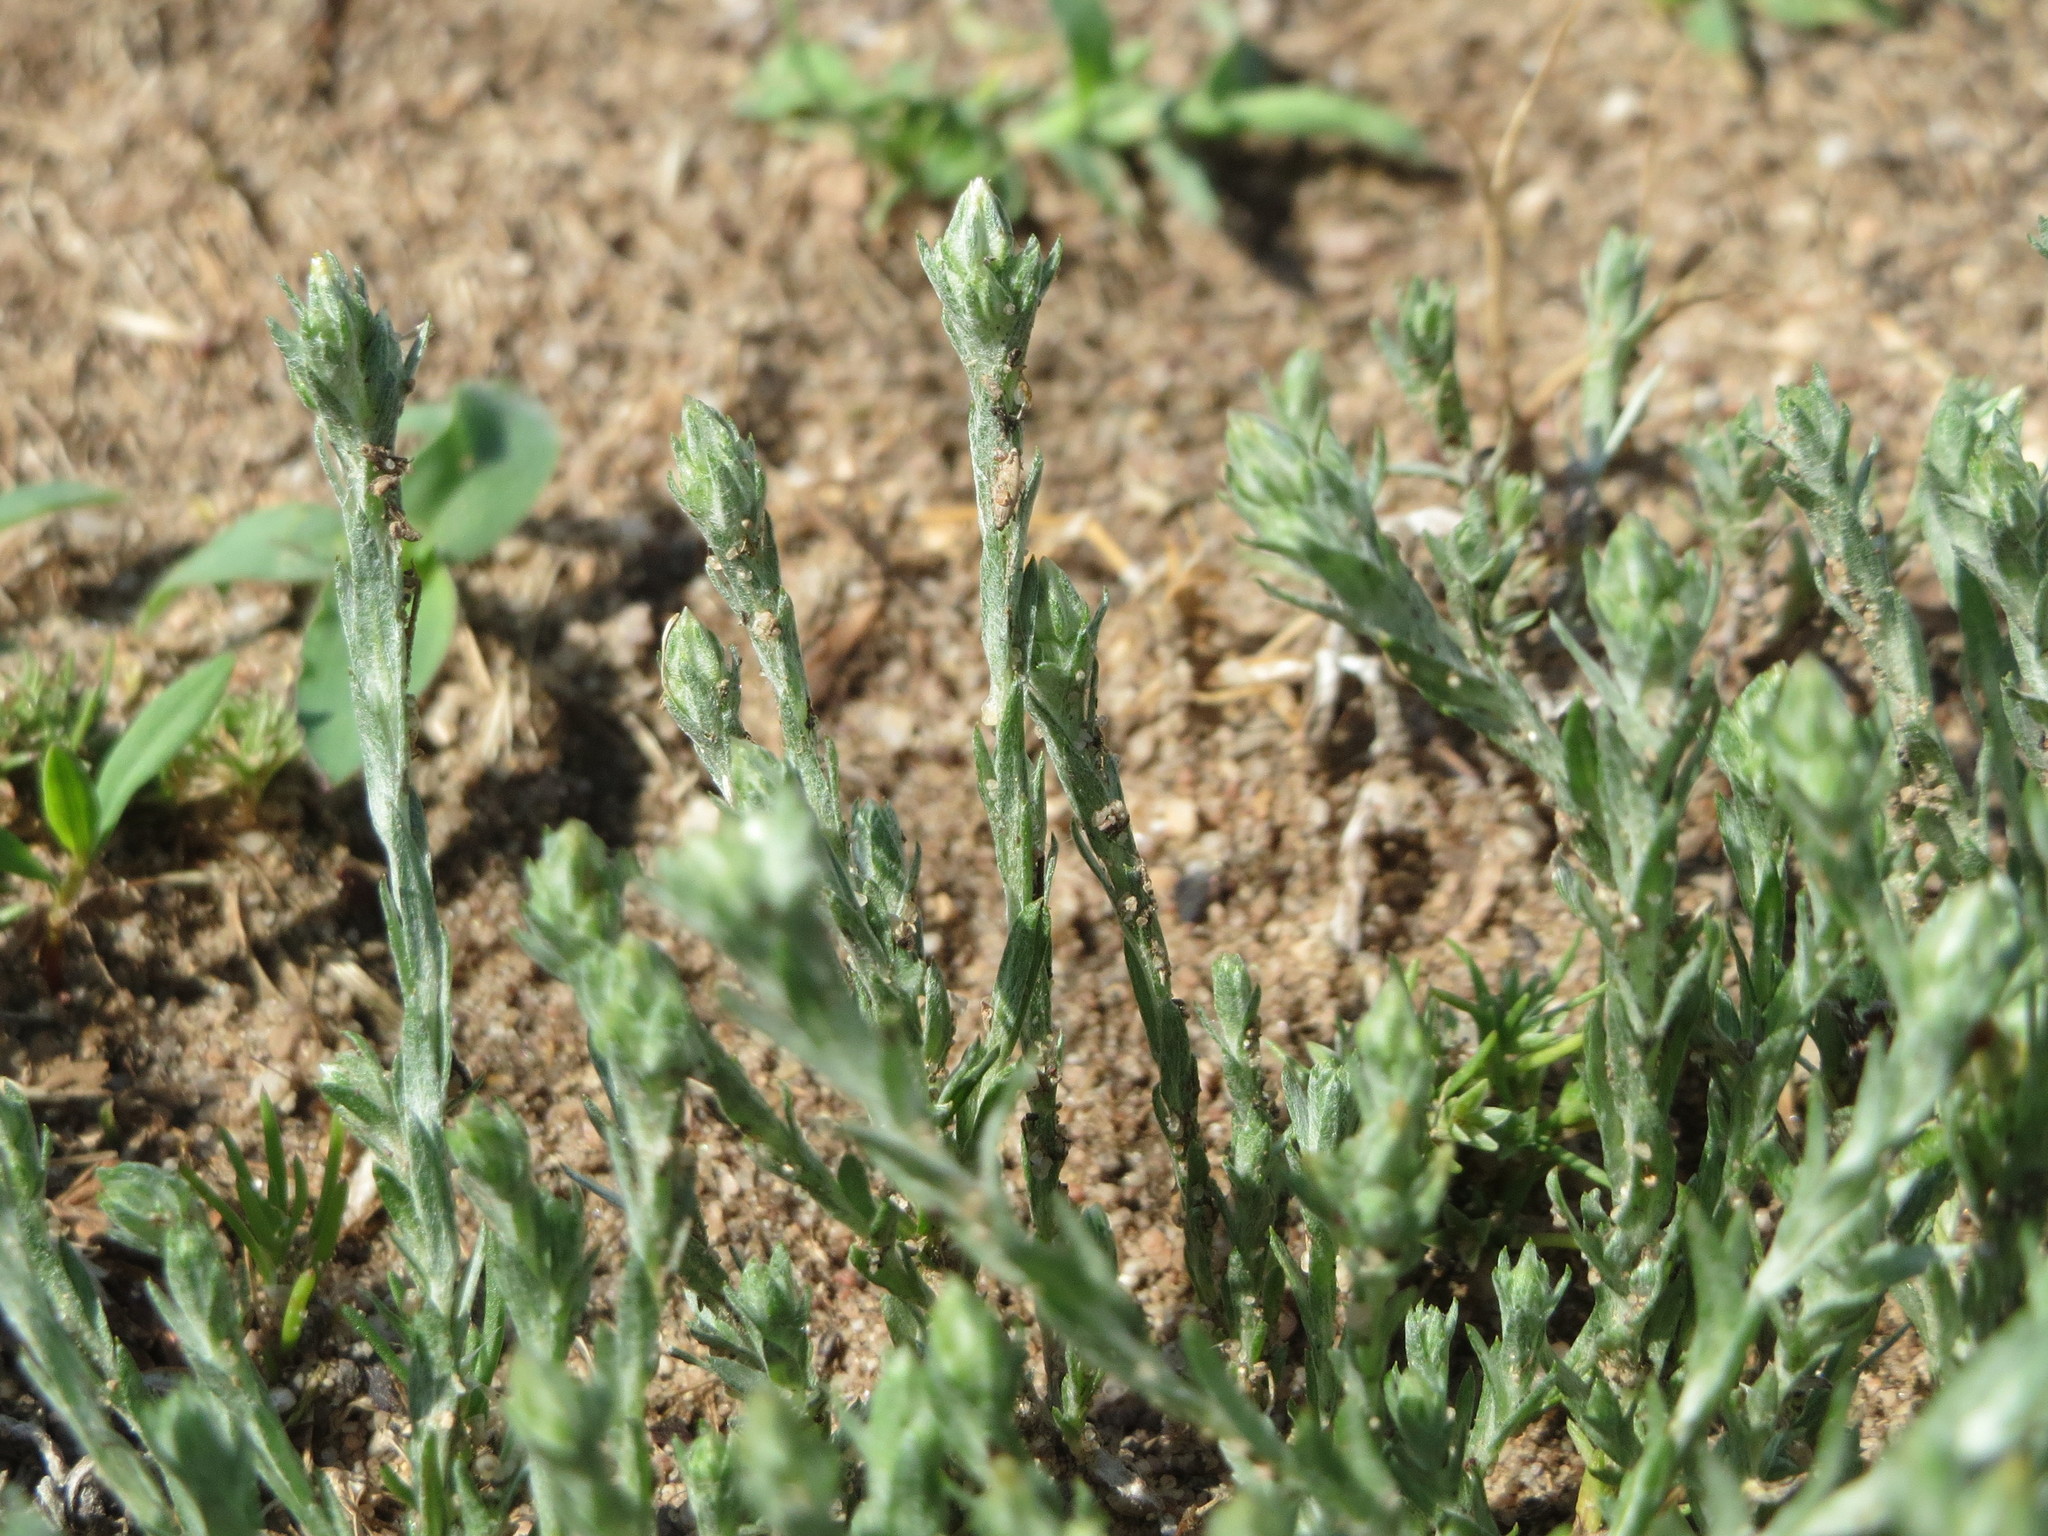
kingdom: Plantae
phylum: Tracheophyta
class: Magnoliopsida
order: Asterales
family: Asteraceae
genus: Filago
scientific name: Filago arvensis
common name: Field cudweed
